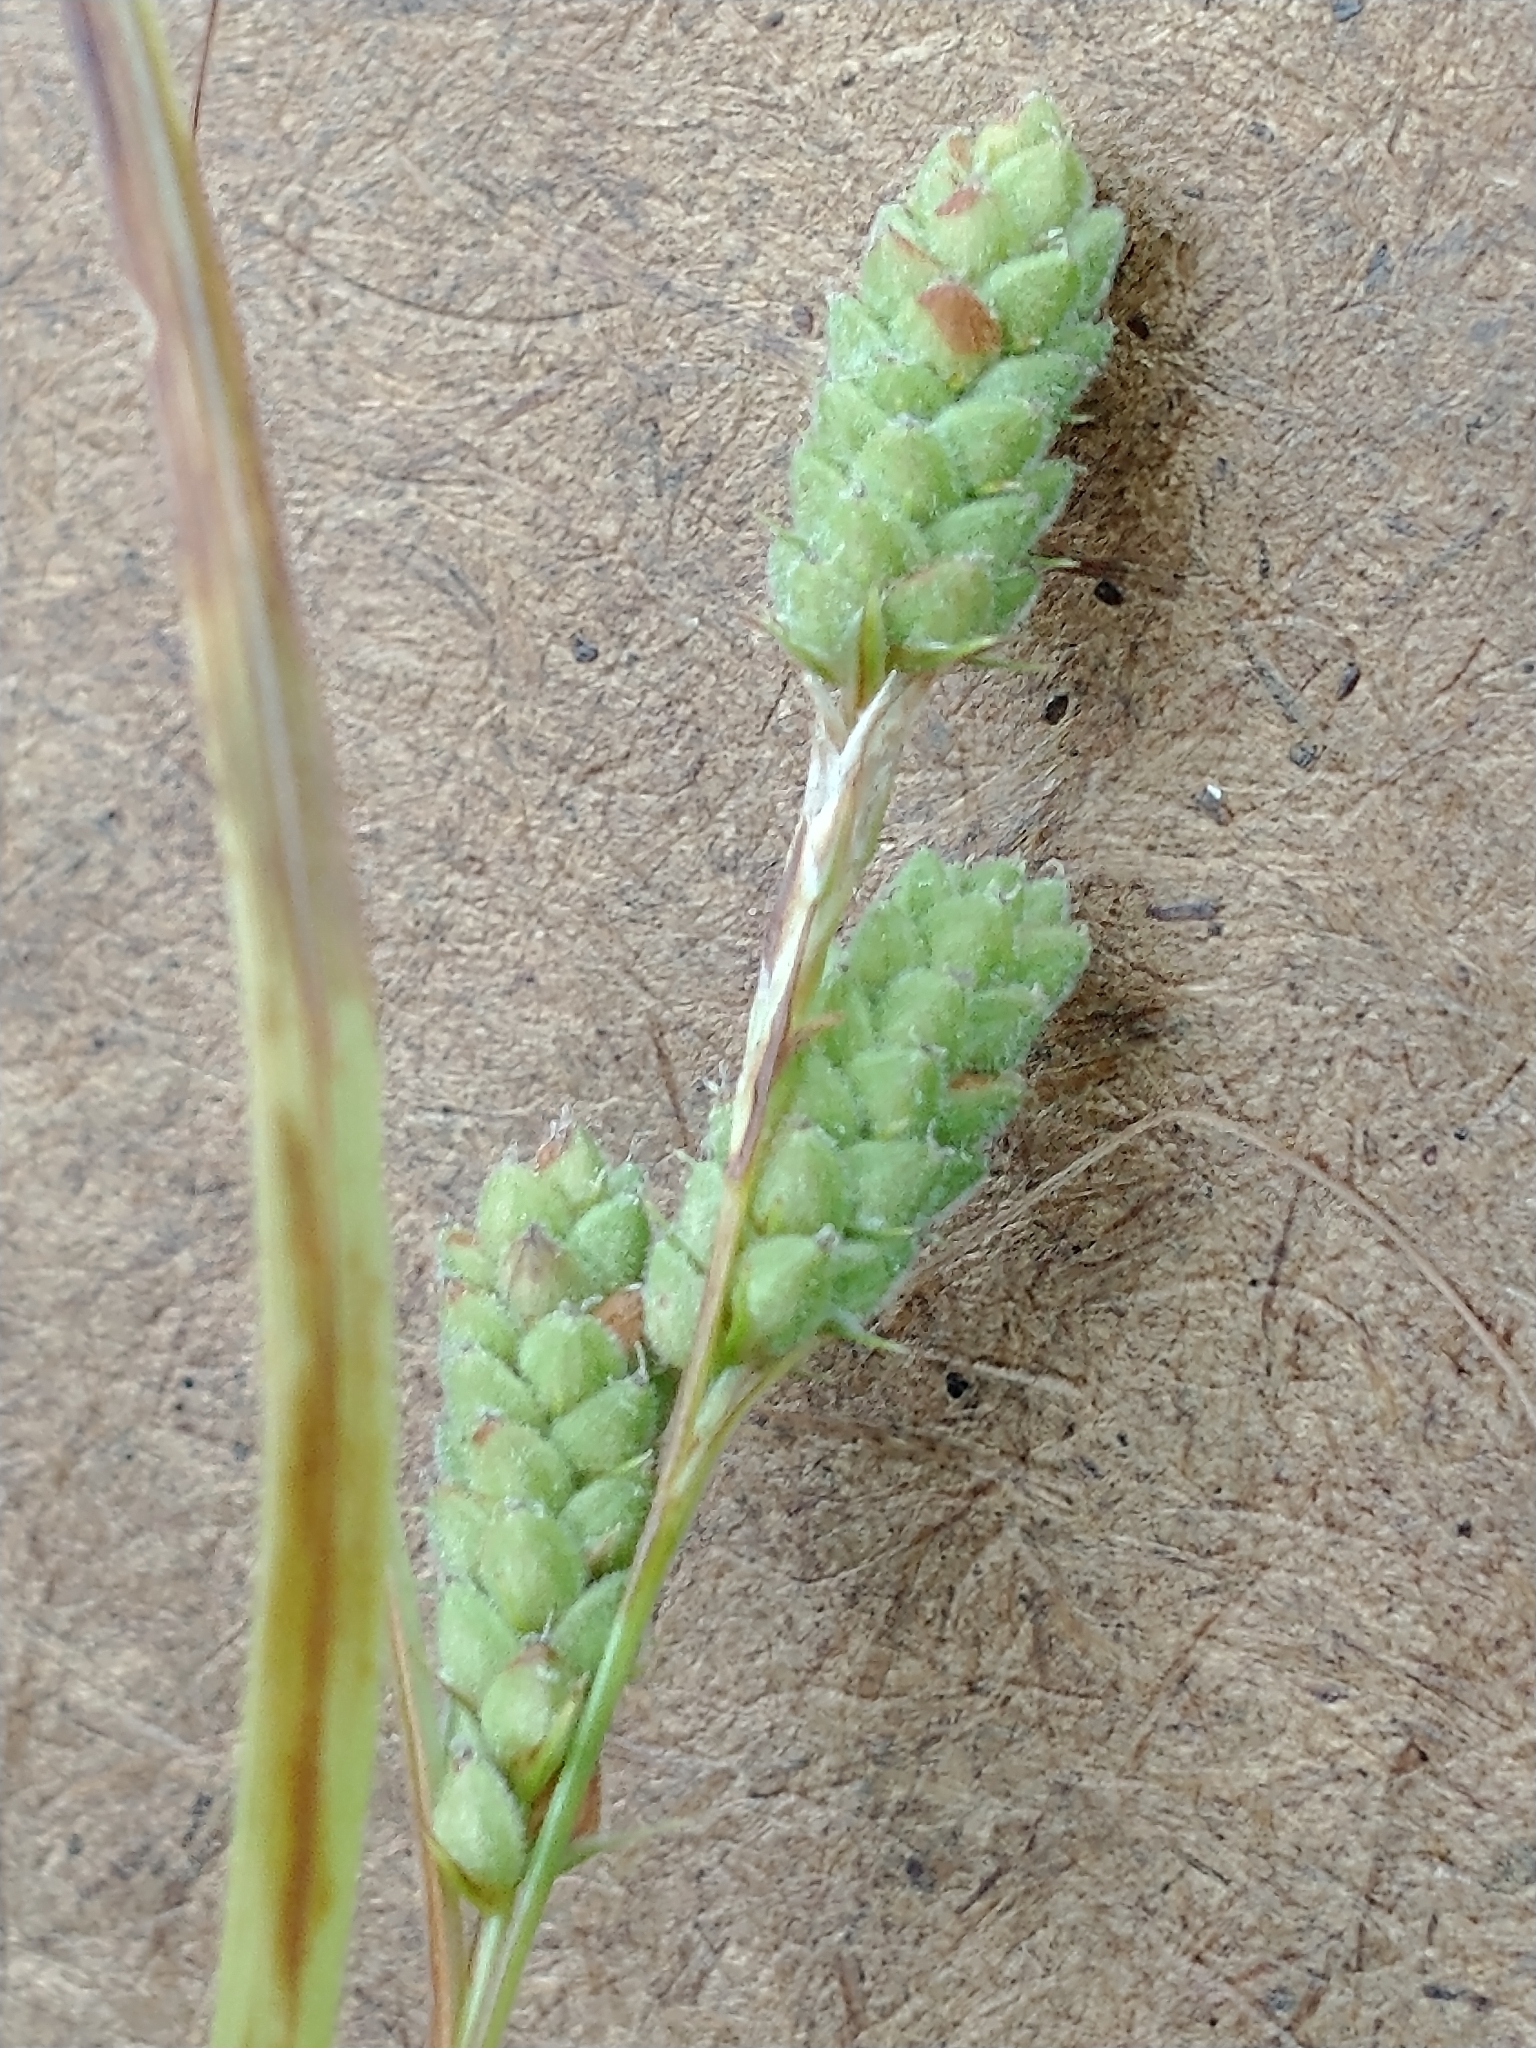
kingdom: Plantae
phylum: Tracheophyta
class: Liliopsida
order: Poales
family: Cyperaceae
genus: Carex
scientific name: Carex swanii
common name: Downy green sedge
